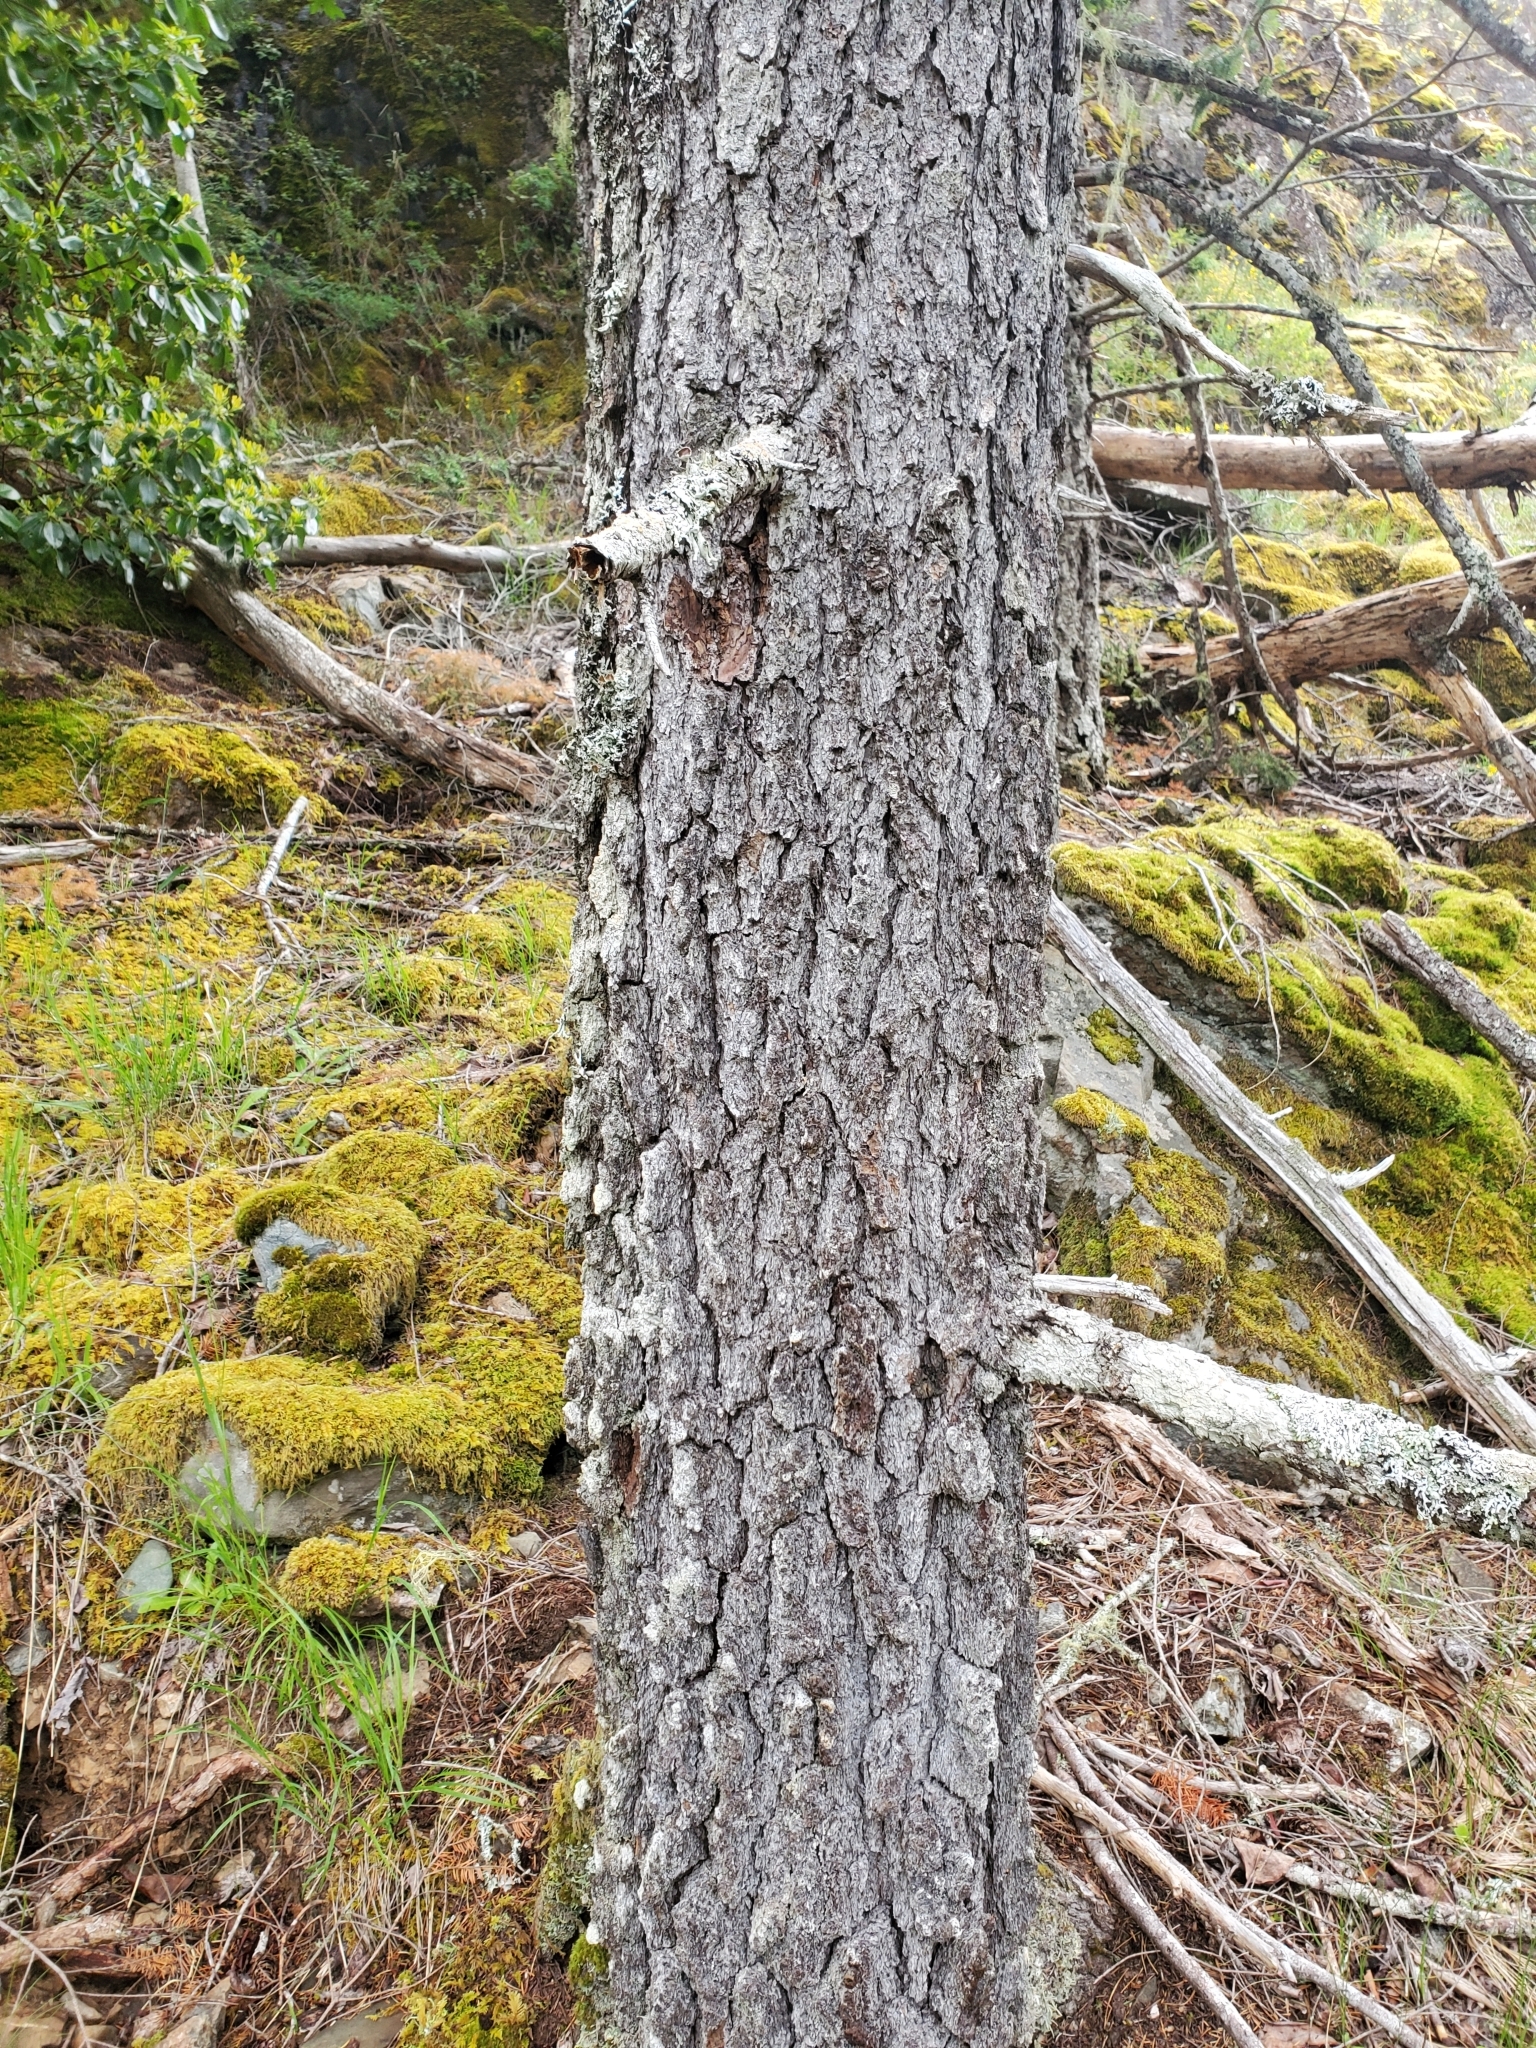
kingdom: Plantae
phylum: Tracheophyta
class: Pinopsida
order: Pinales
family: Pinaceae
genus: Pinus
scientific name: Pinus contorta
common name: Lodgepole pine
